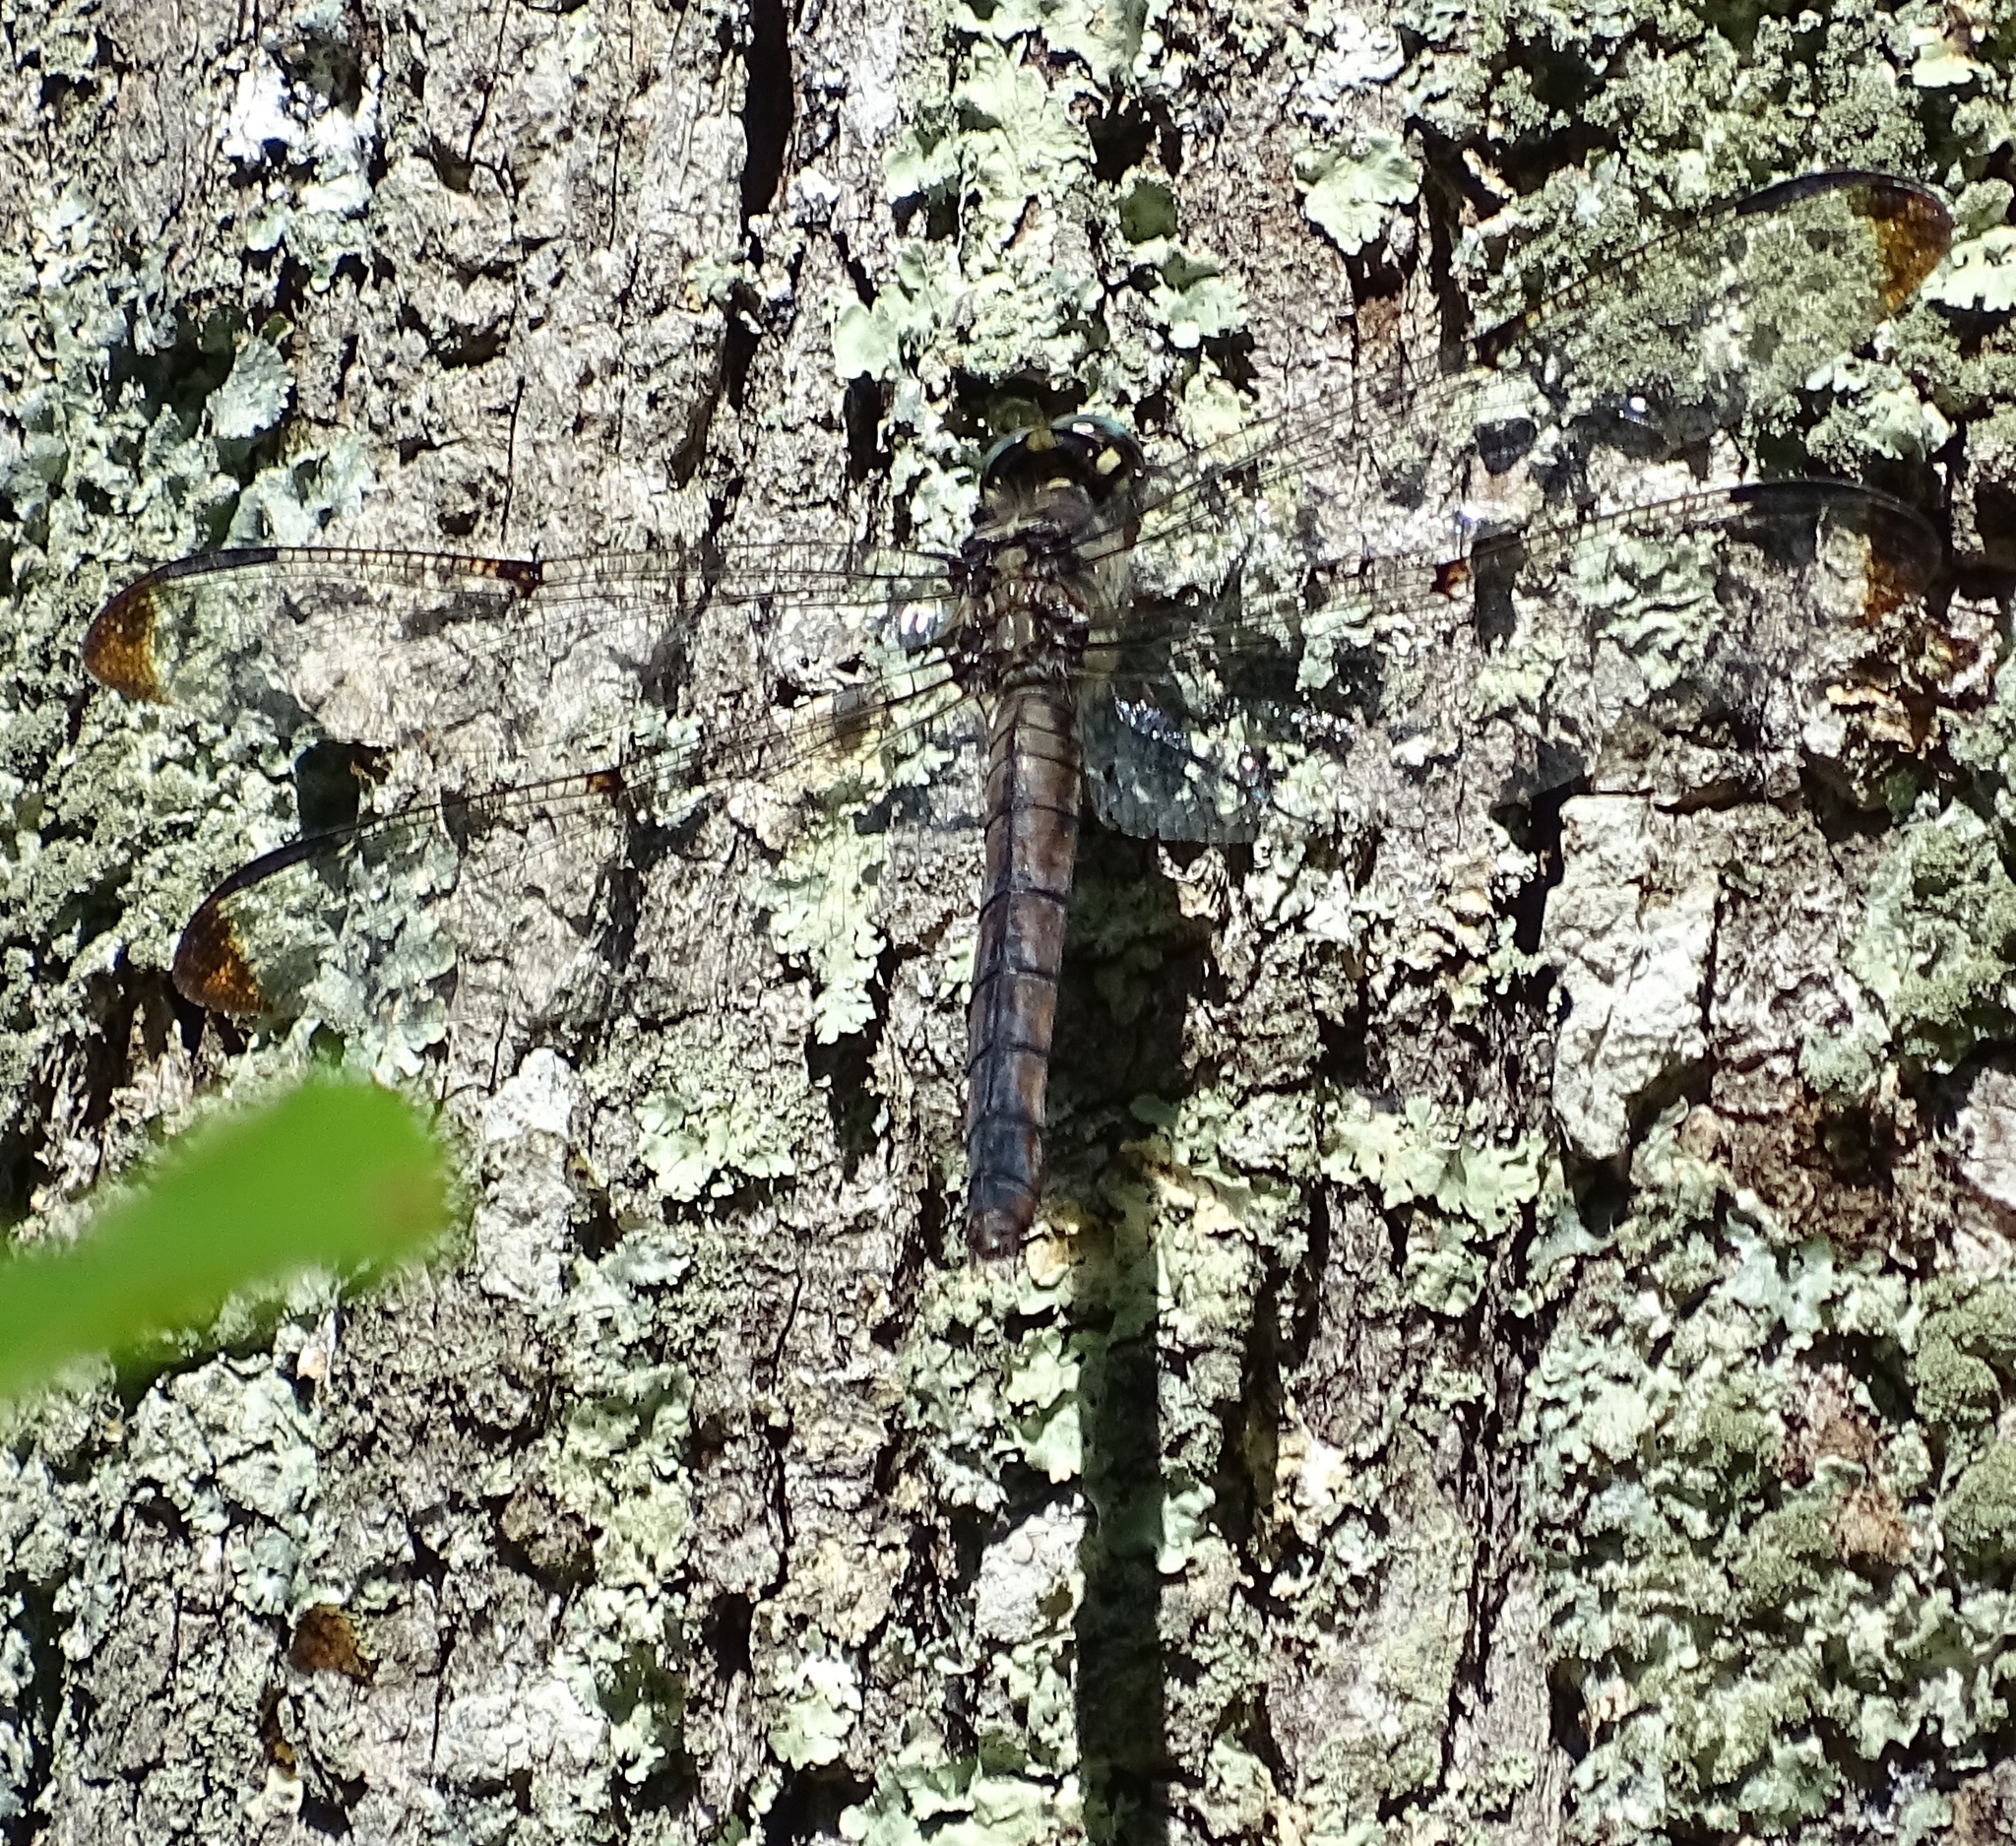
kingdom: Animalia
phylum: Arthropoda
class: Insecta
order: Odonata
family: Libellulidae
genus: Libellula
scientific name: Libellula vibrans
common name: Great blue skimmer
